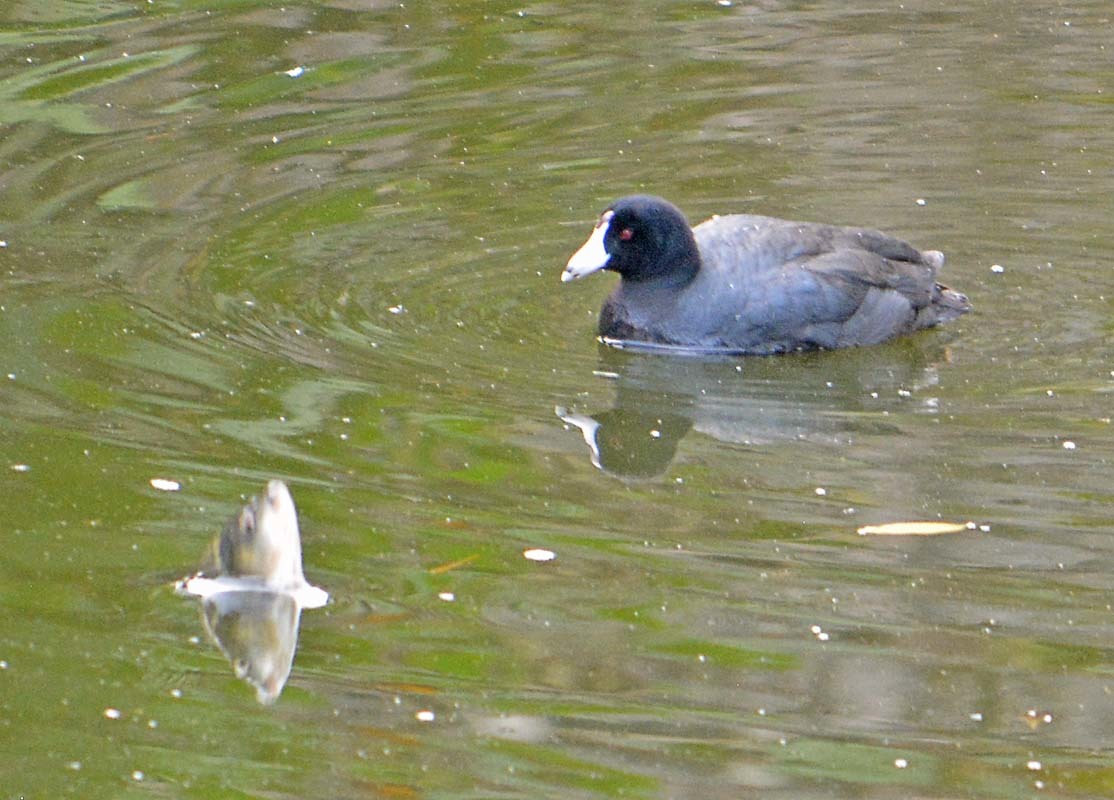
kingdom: Animalia
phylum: Chordata
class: Aves
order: Gruiformes
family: Rallidae
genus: Fulica
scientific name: Fulica americana
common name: American coot
